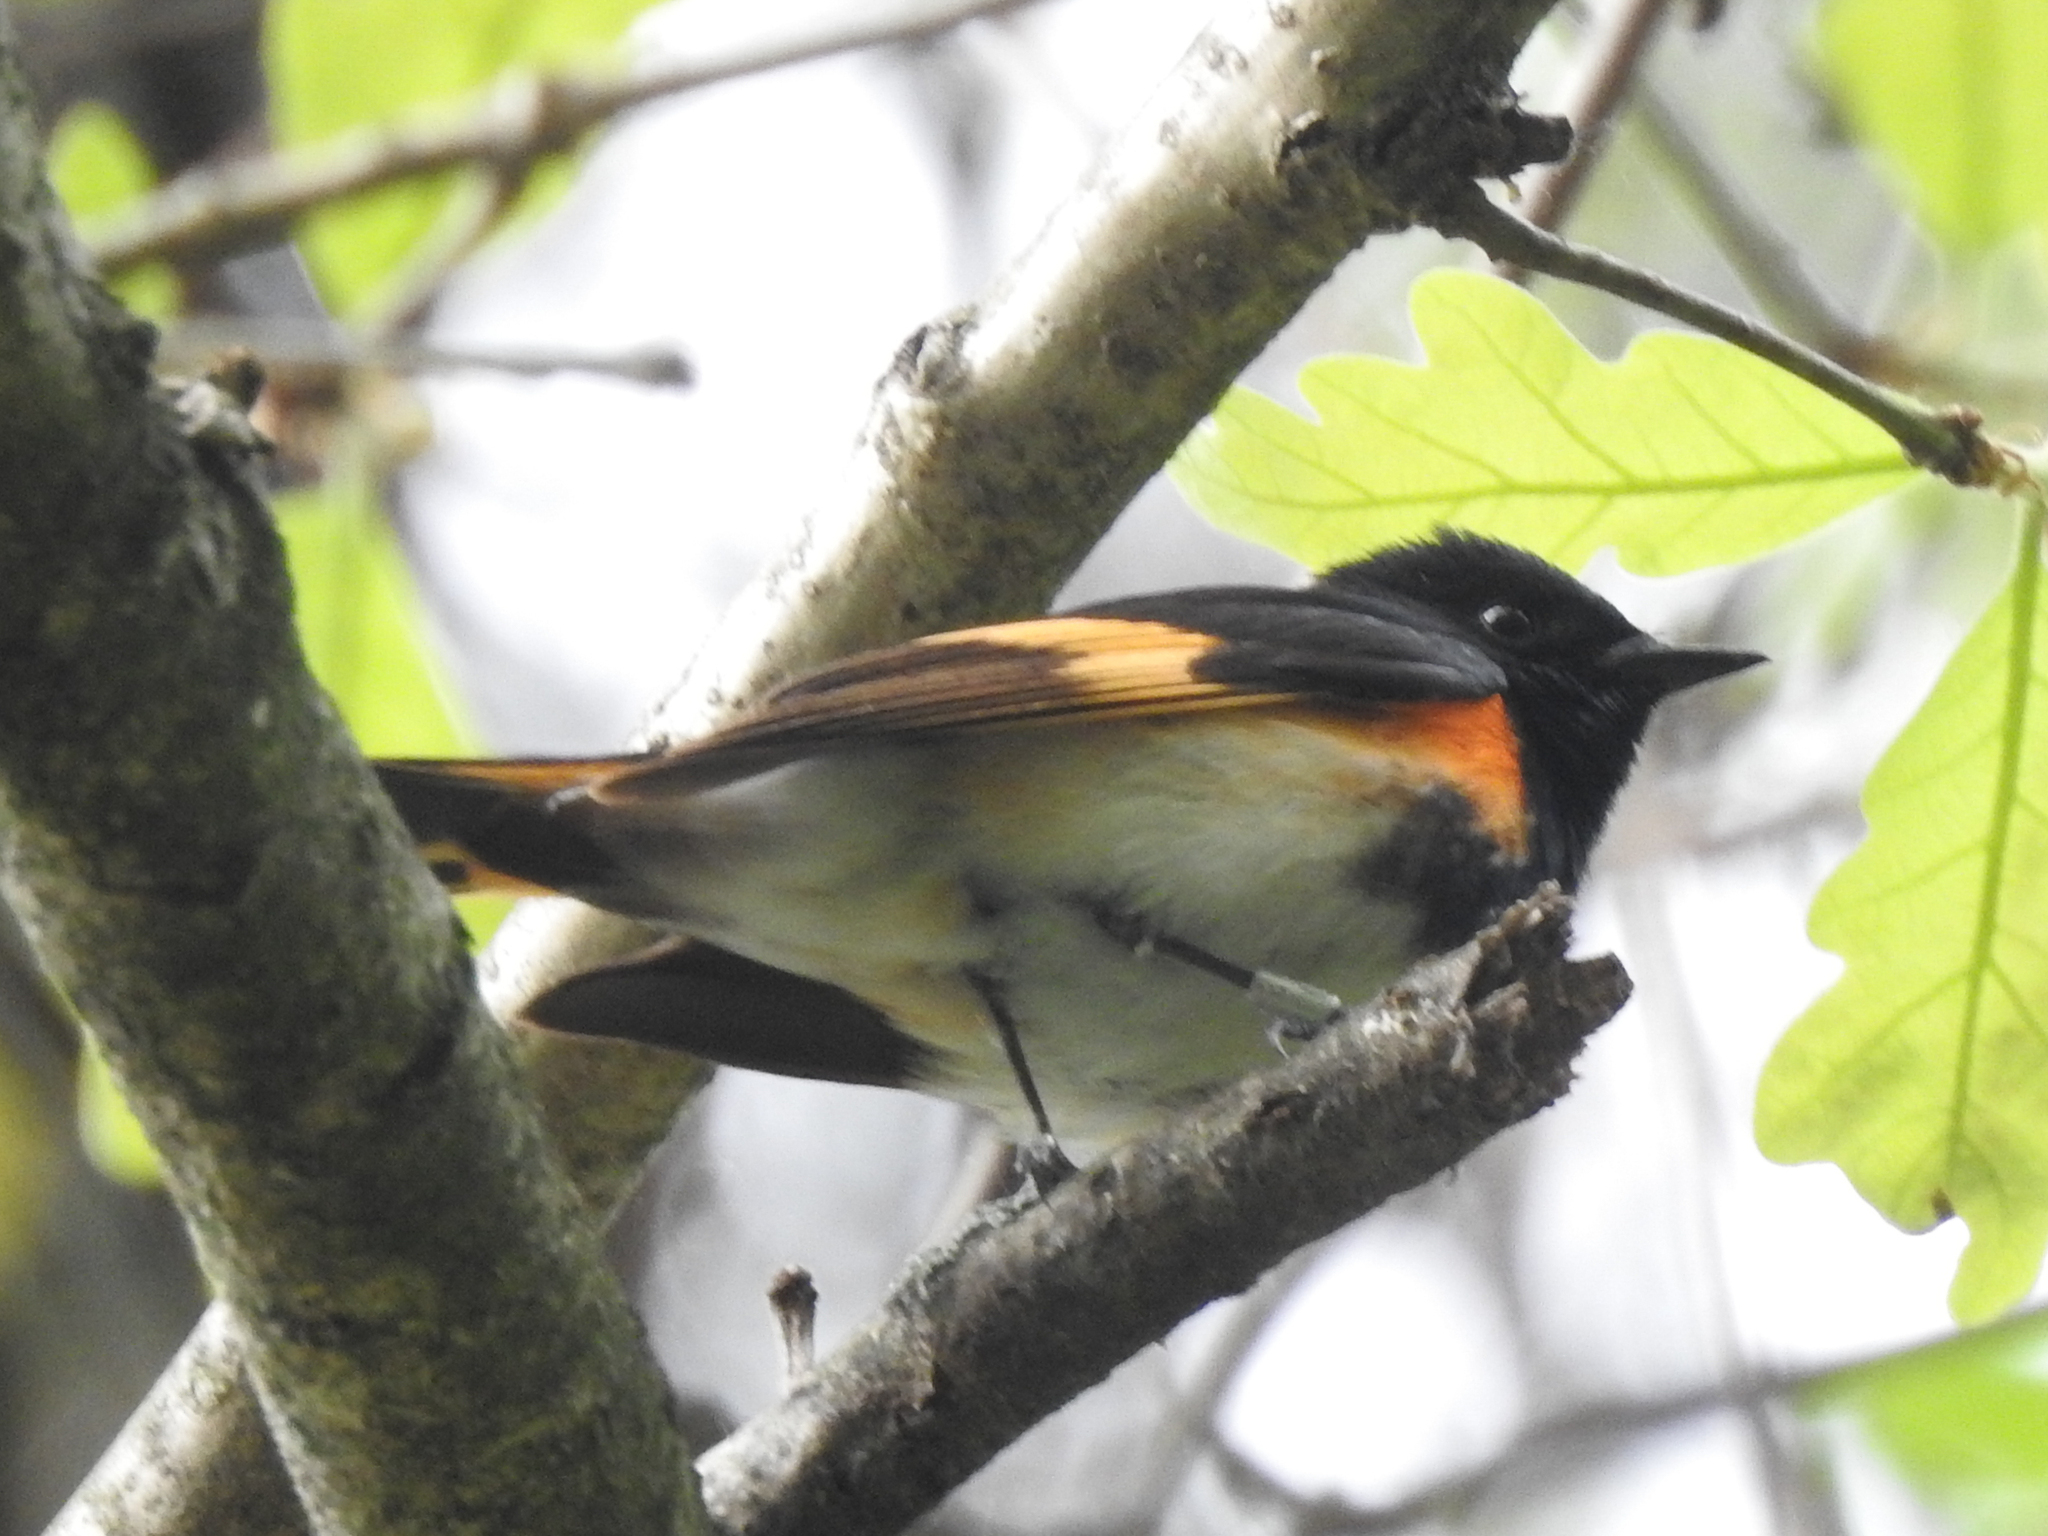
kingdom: Animalia
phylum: Chordata
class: Aves
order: Passeriformes
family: Parulidae
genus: Setophaga
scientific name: Setophaga ruticilla
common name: American redstart
